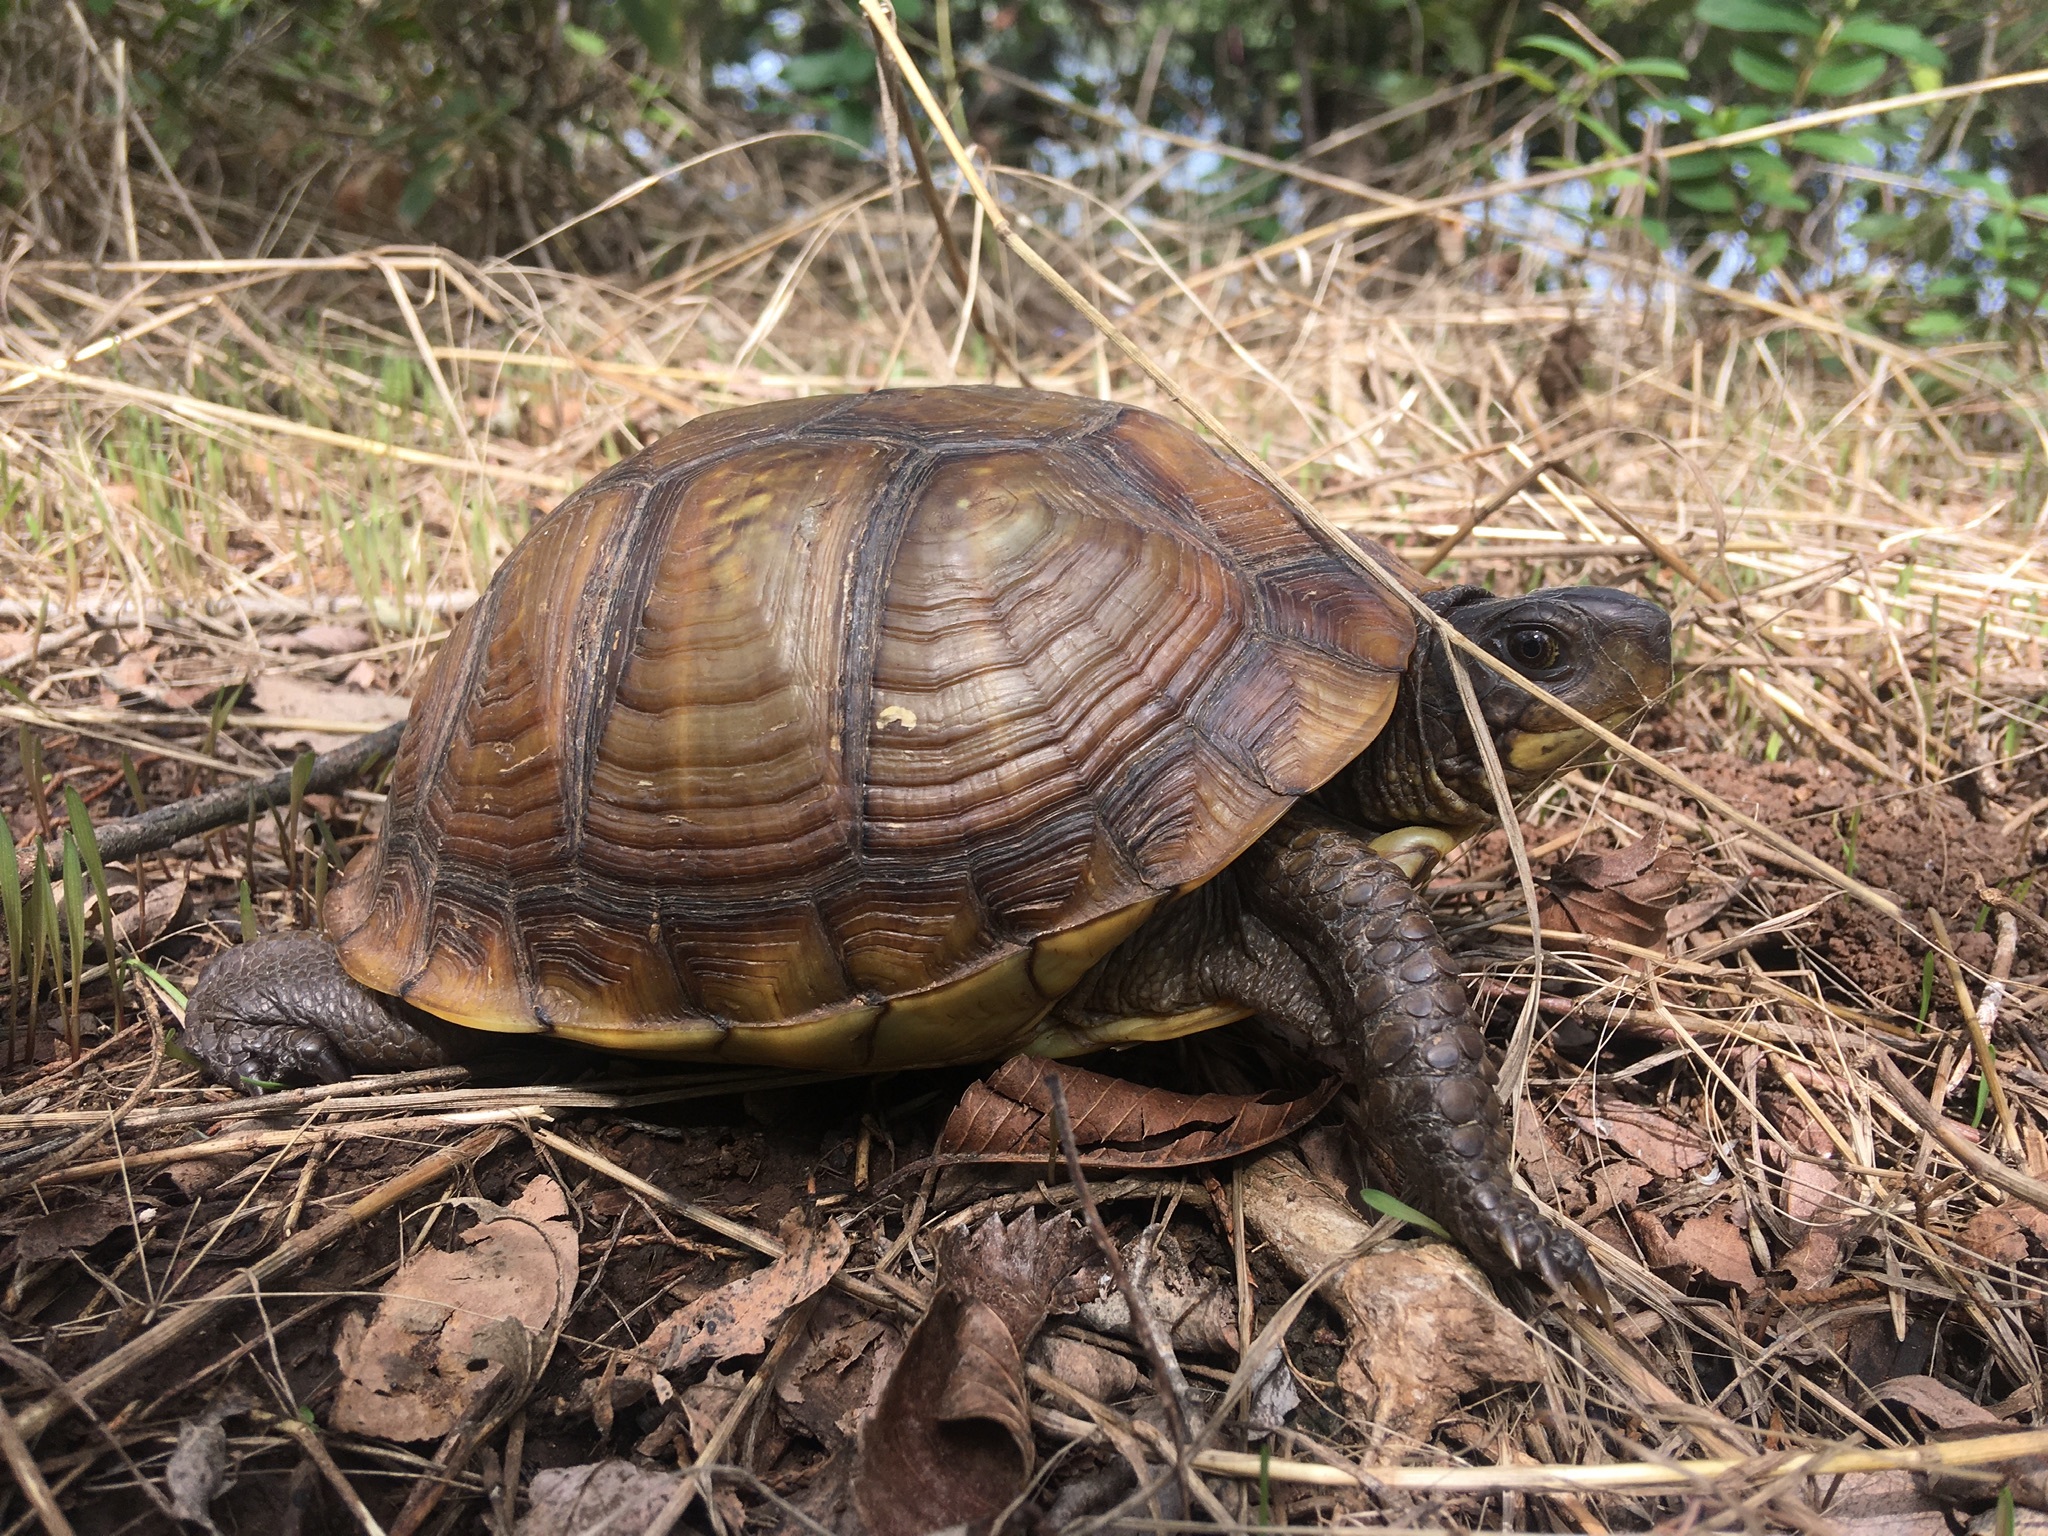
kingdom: Animalia
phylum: Chordata
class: Testudines
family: Emydidae
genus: Terrapene
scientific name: Terrapene carolina
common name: Common box turtle
